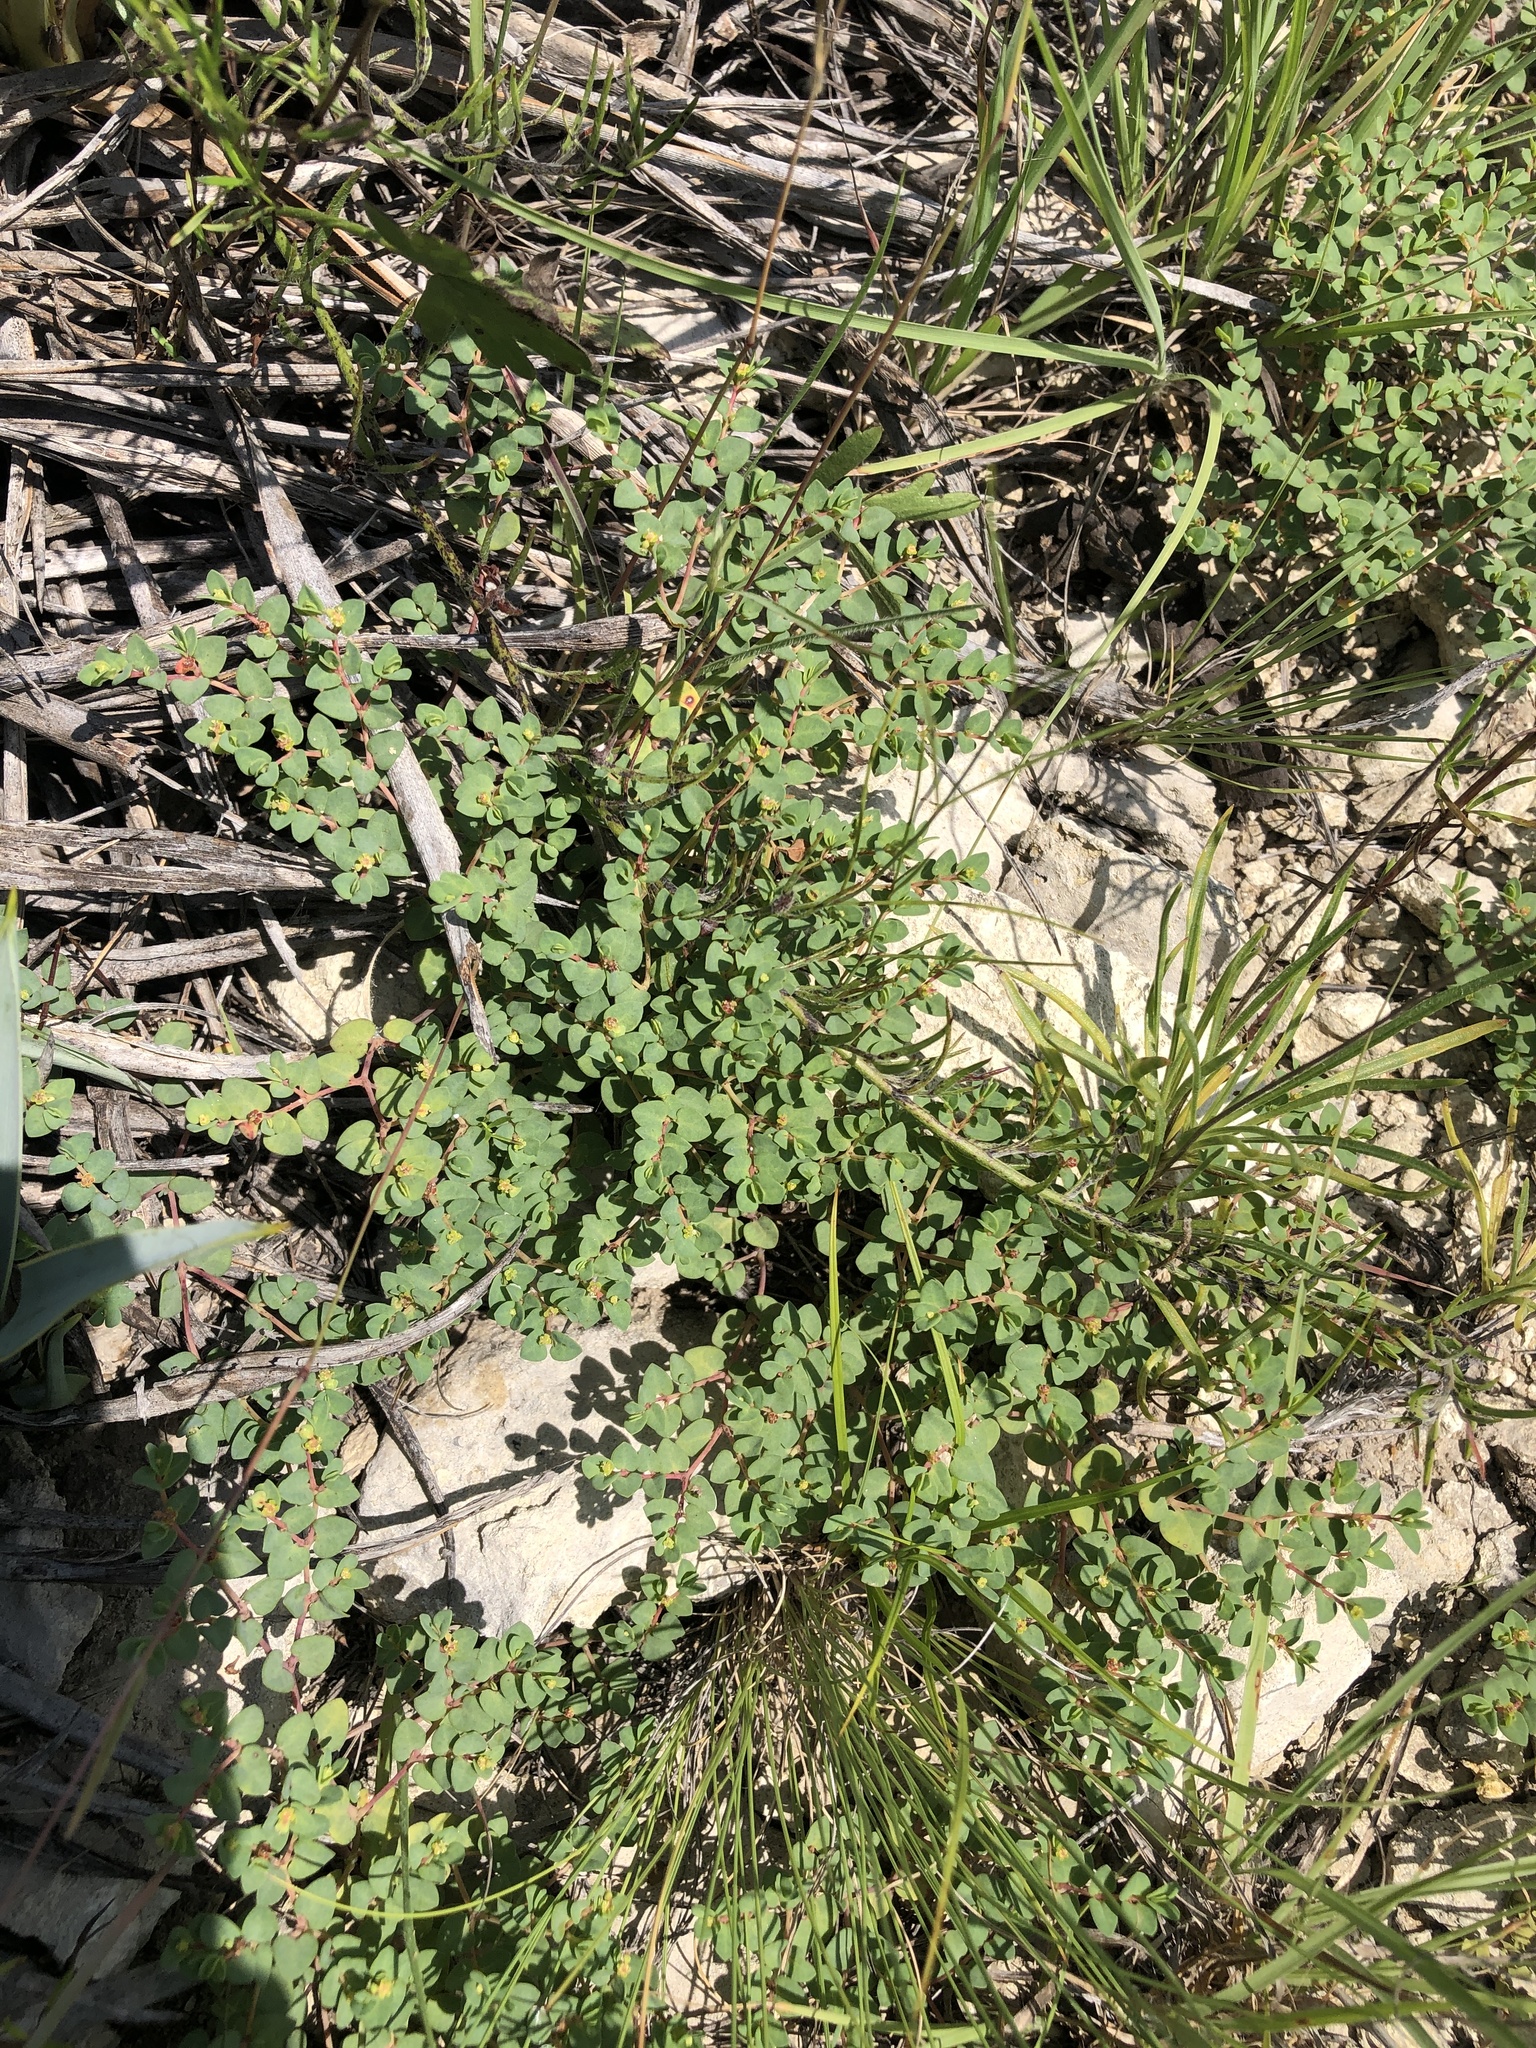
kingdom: Plantae
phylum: Tracheophyta
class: Magnoliopsida
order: Malpighiales
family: Euphorbiaceae
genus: Euphorbia
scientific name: Euphorbia fendleri
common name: Fendler's euphorbia
